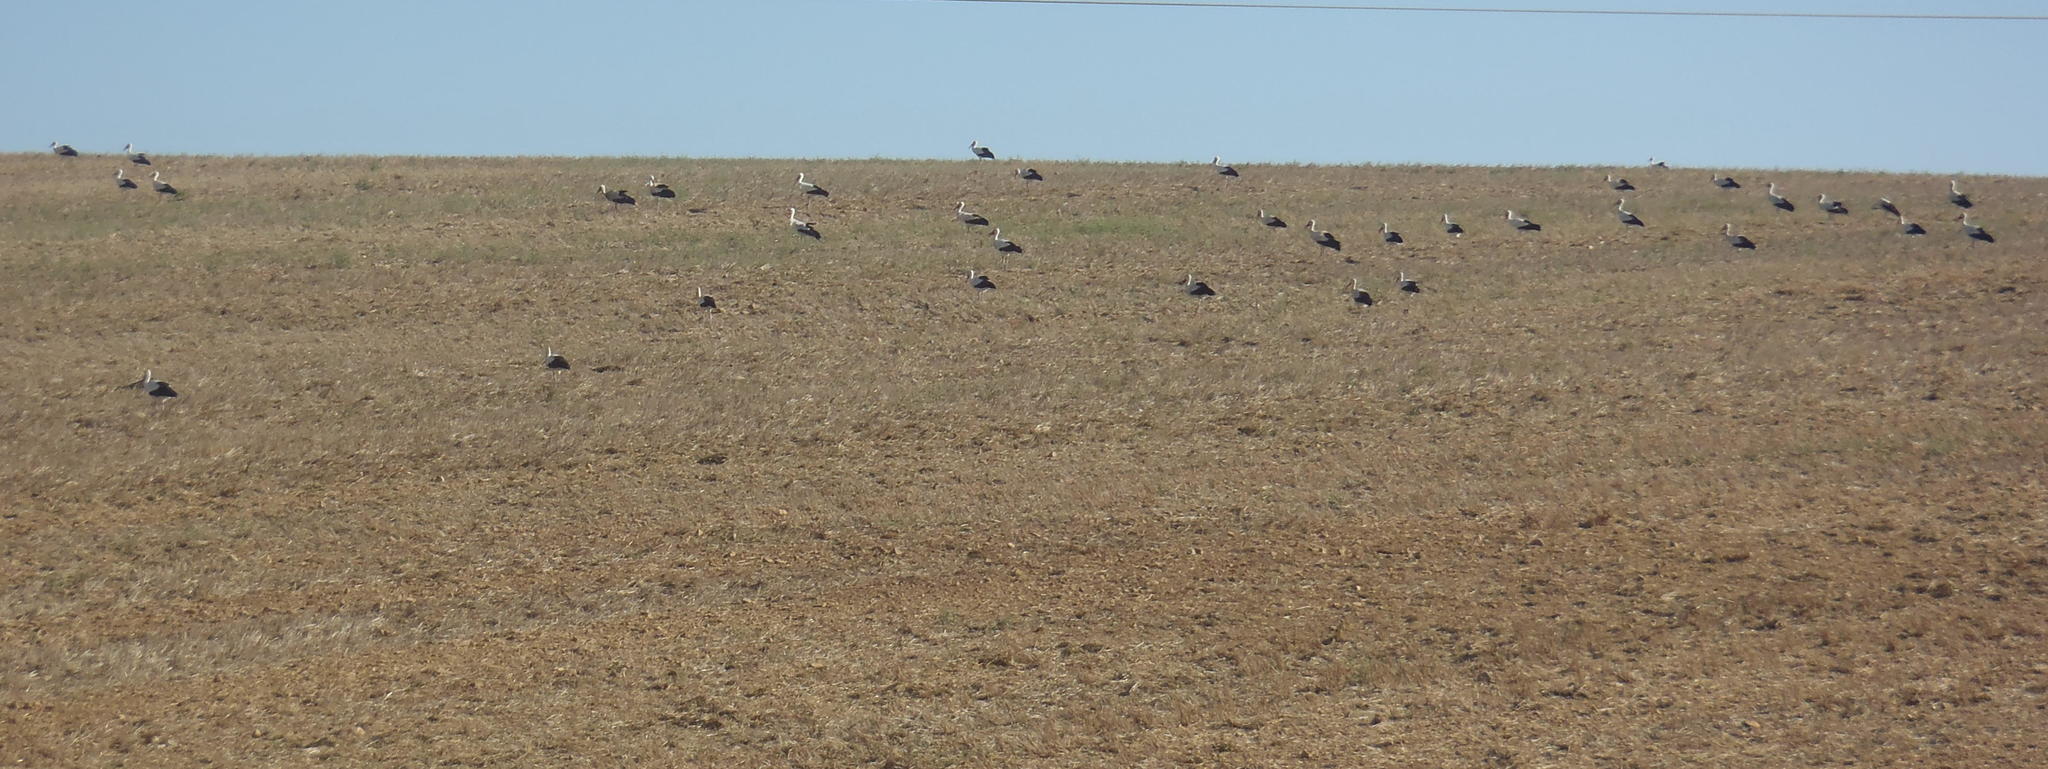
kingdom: Animalia
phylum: Chordata
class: Aves
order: Ciconiiformes
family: Ciconiidae
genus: Ciconia
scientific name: Ciconia ciconia
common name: White stork
